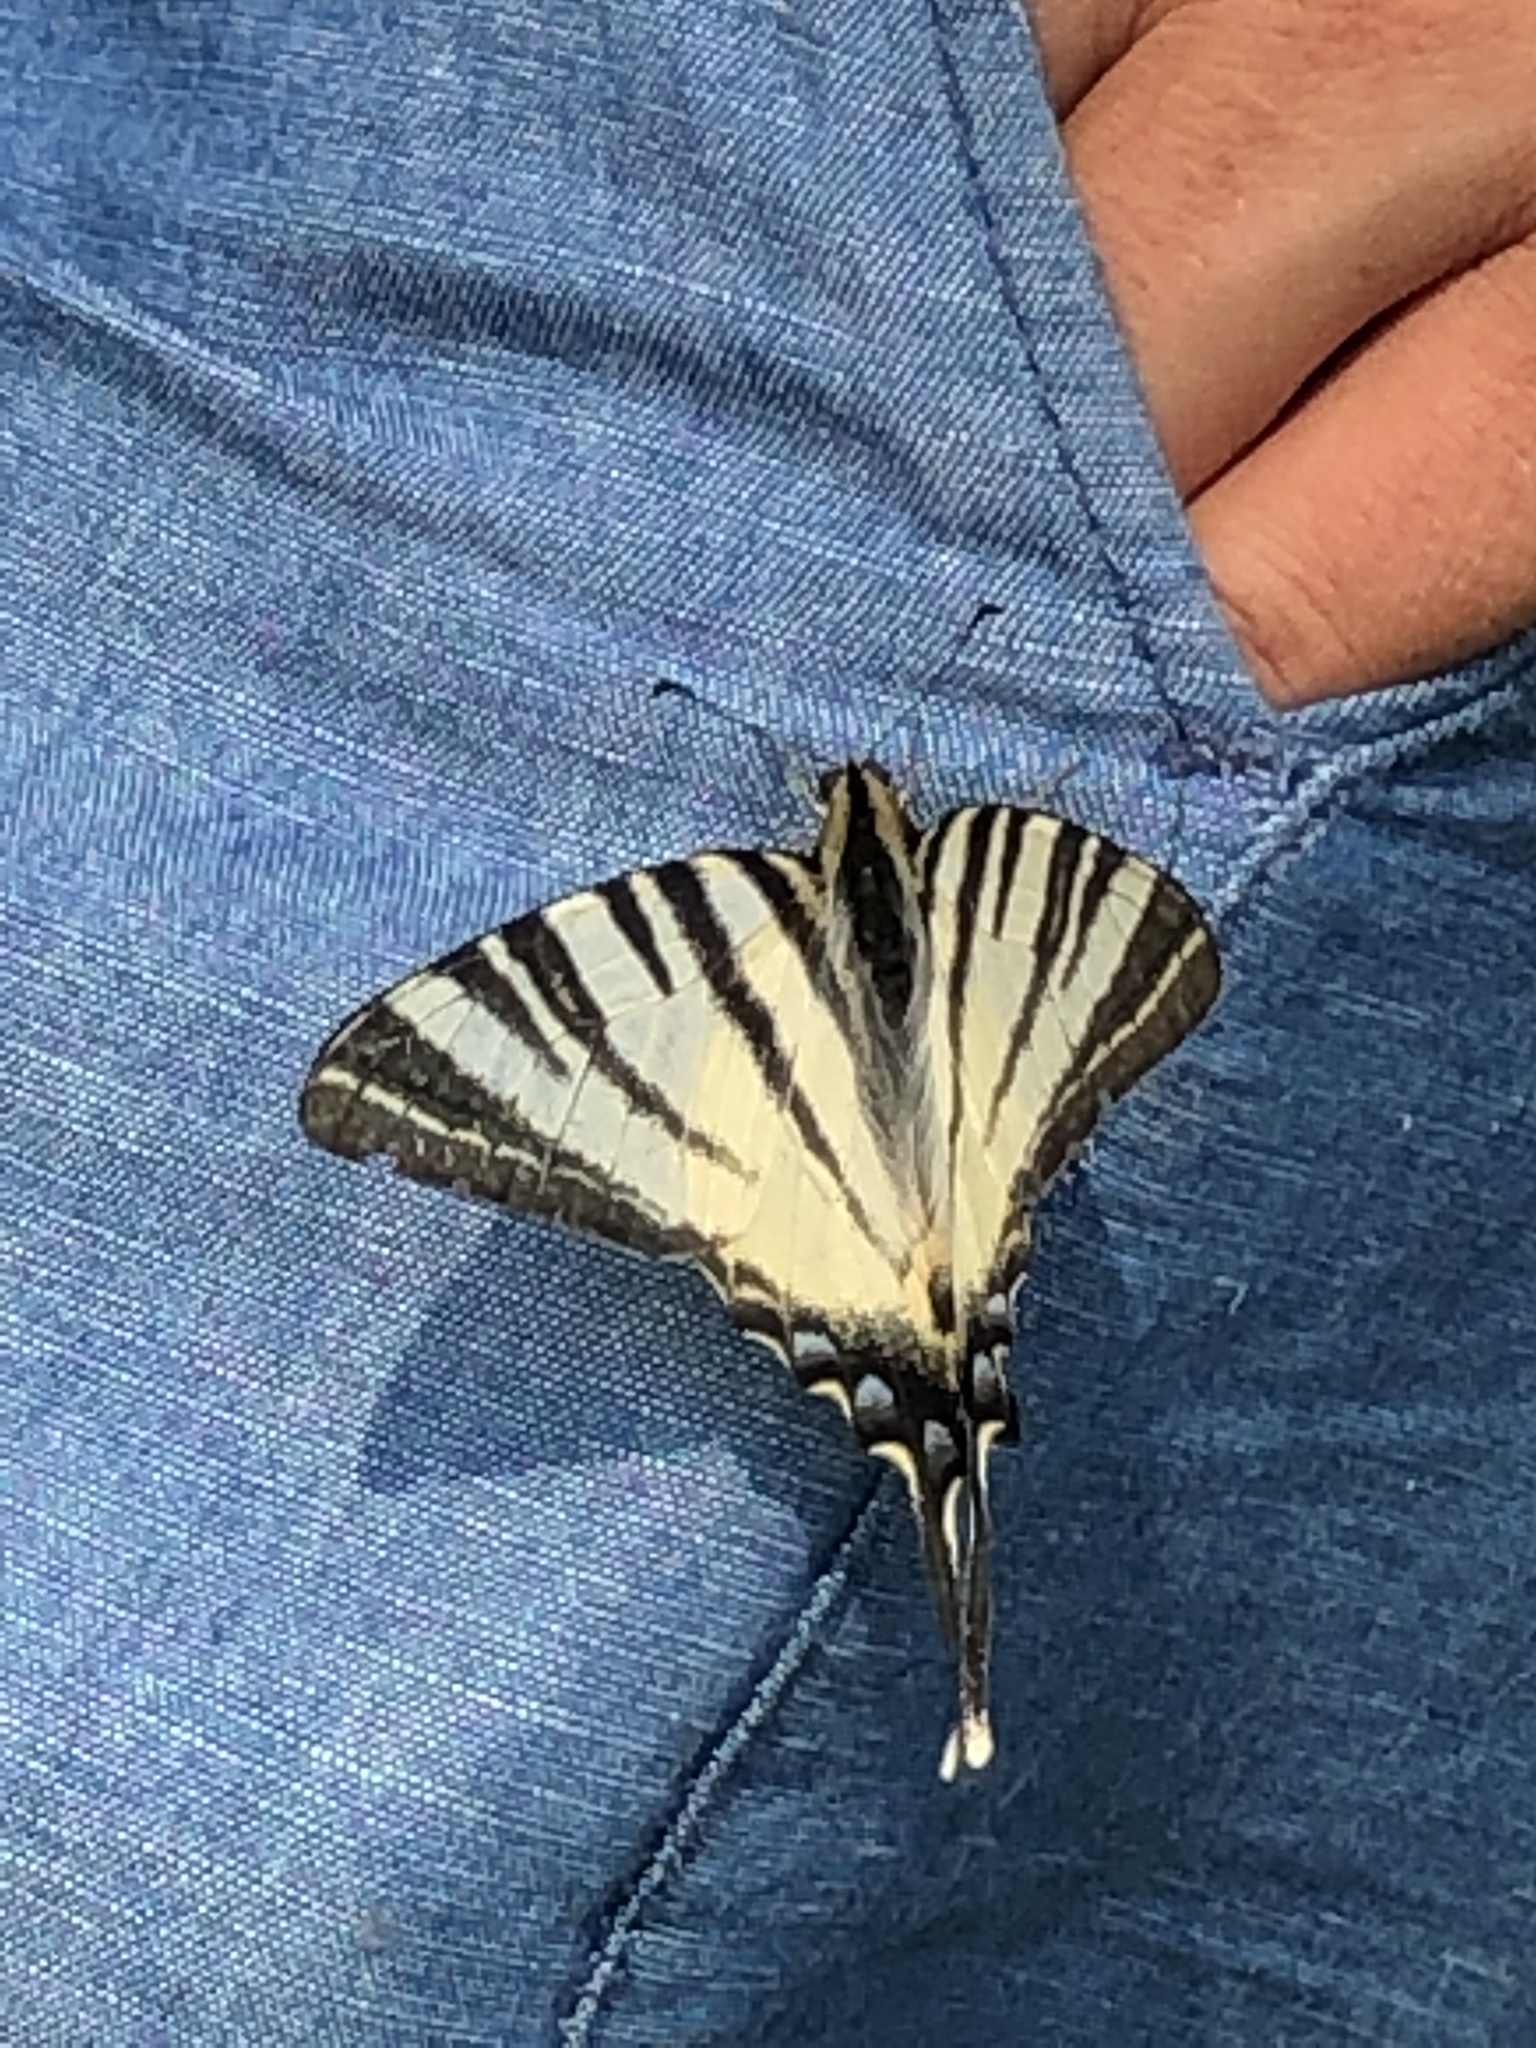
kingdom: Animalia
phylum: Arthropoda
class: Insecta
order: Lepidoptera
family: Papilionidae
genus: Iphiclides
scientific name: Iphiclides podalirius
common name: Scarce swallowtail
